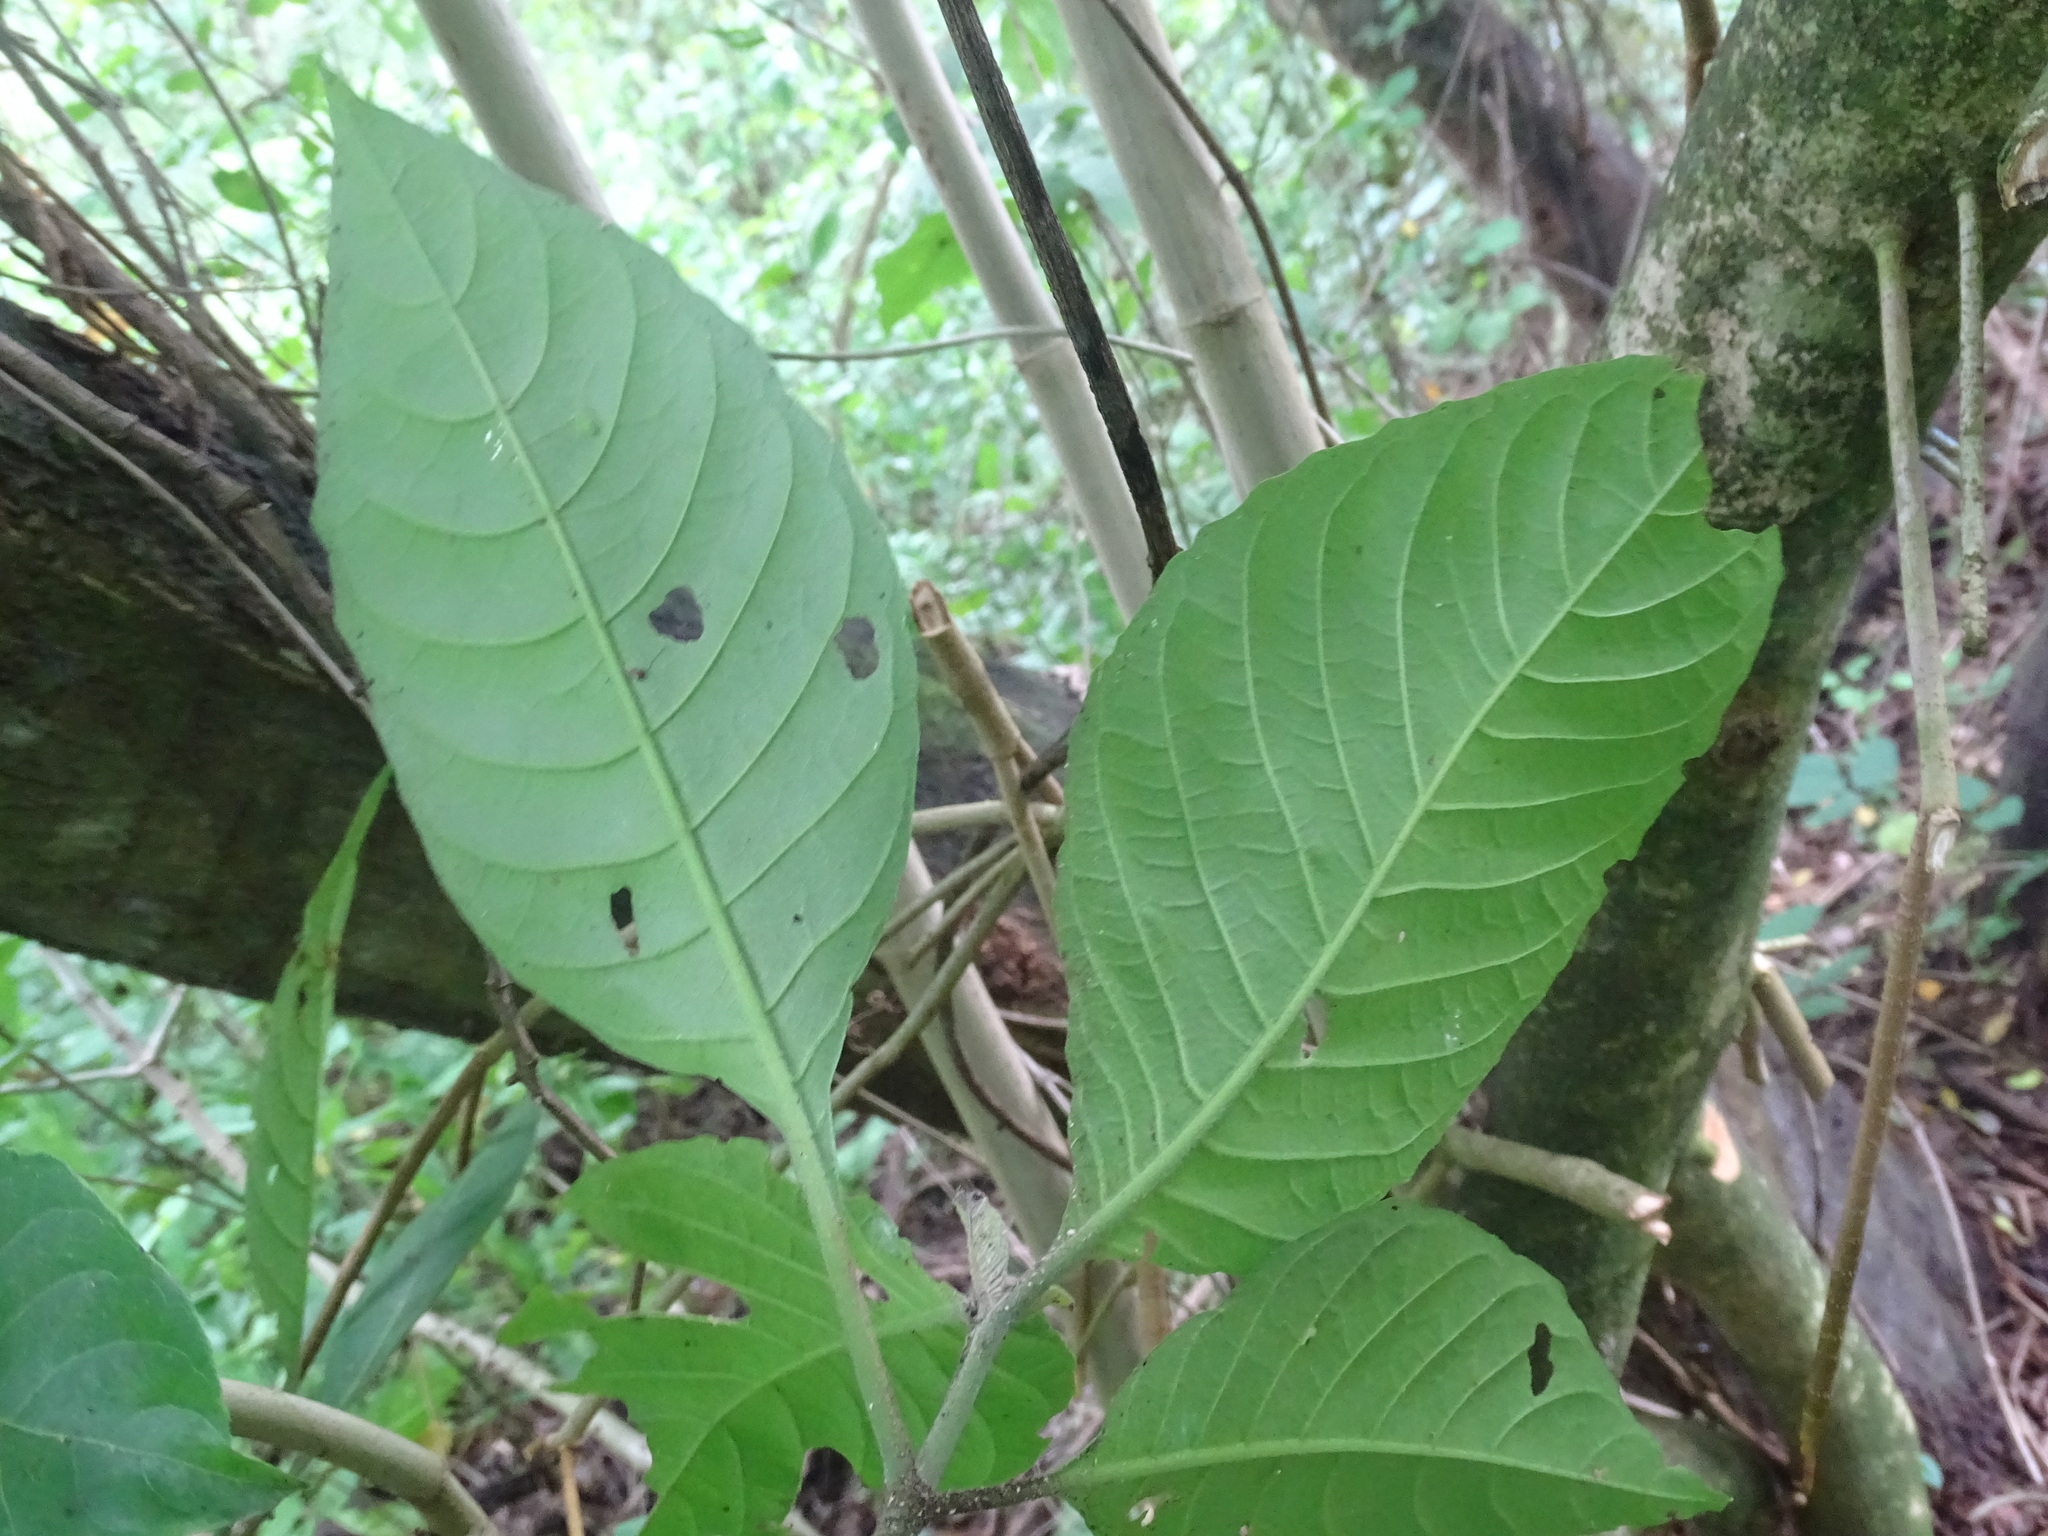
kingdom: Plantae
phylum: Tracheophyta
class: Magnoliopsida
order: Lamiales
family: Acanthaceae
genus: Bravaisia
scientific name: Bravaisia integerrima
